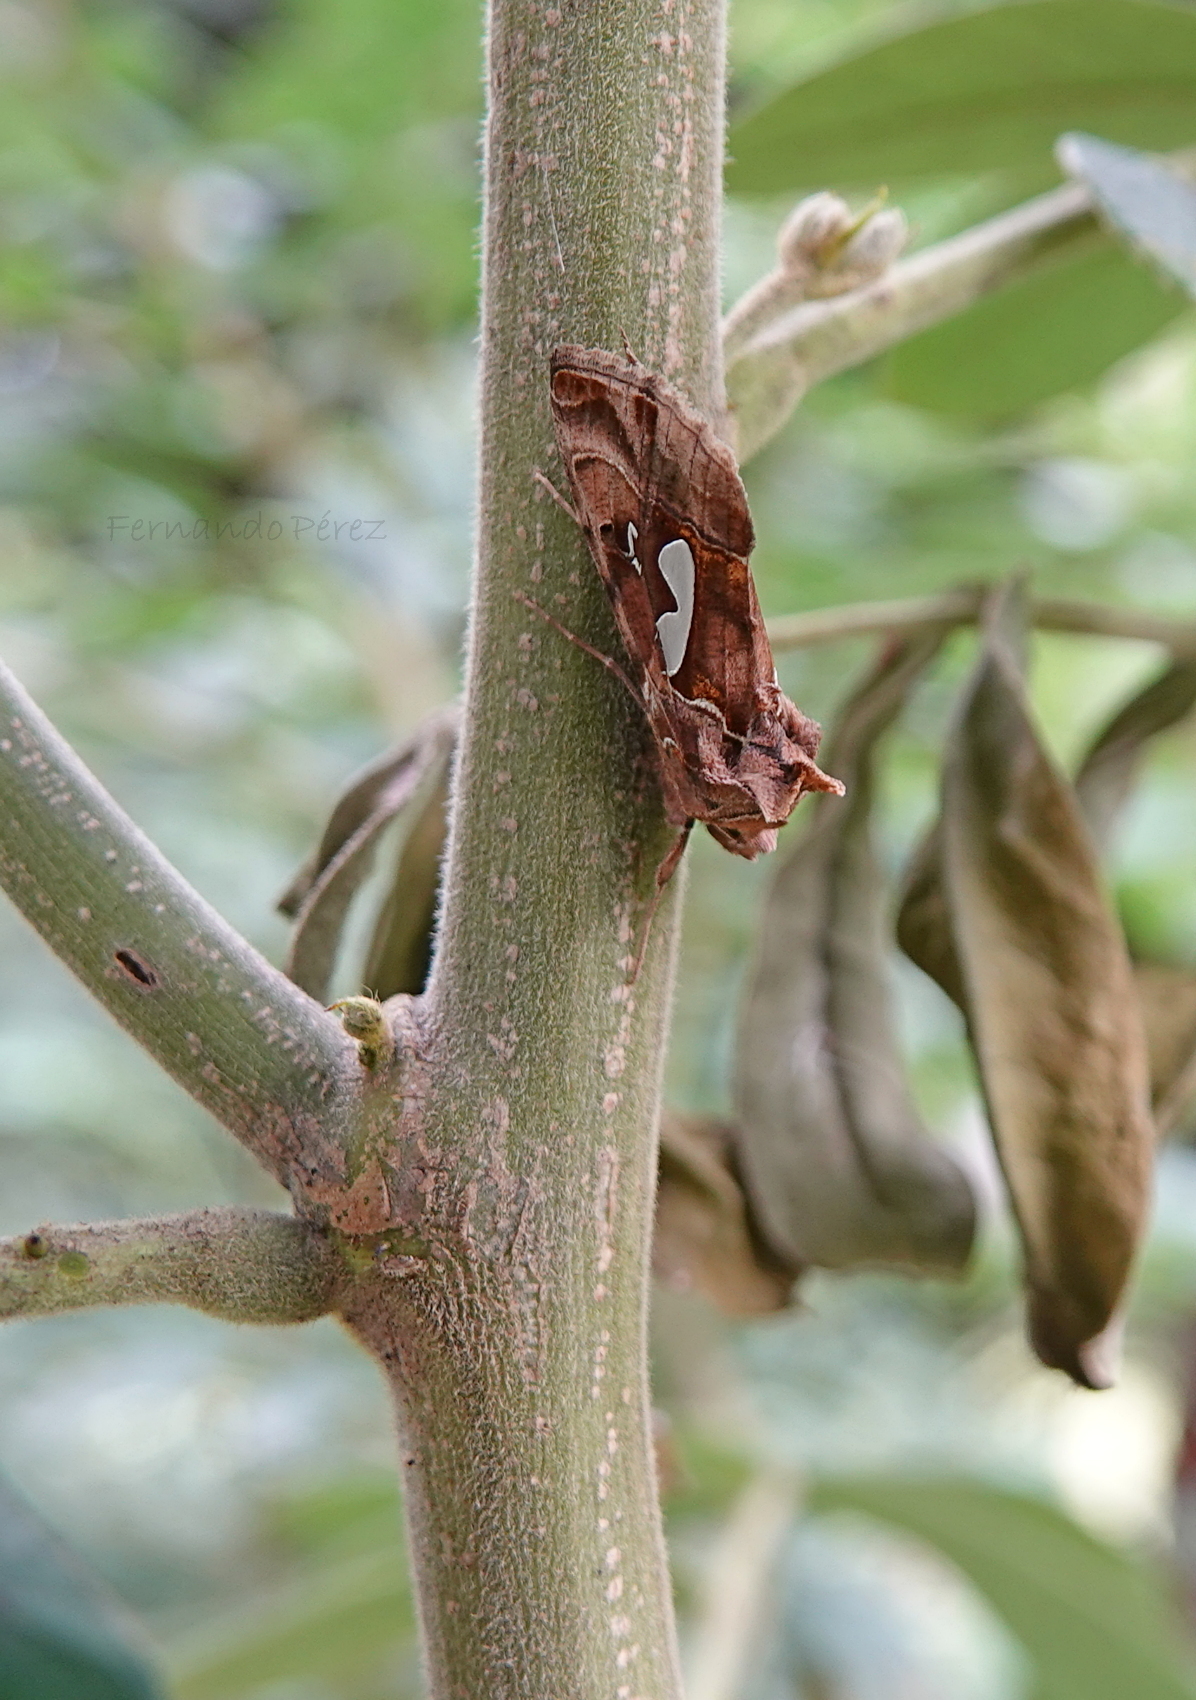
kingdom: Animalia
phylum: Arthropoda
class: Insecta
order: Lepidoptera
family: Noctuidae
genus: Megalographa
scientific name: Megalographa biloba
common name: Cutworm
